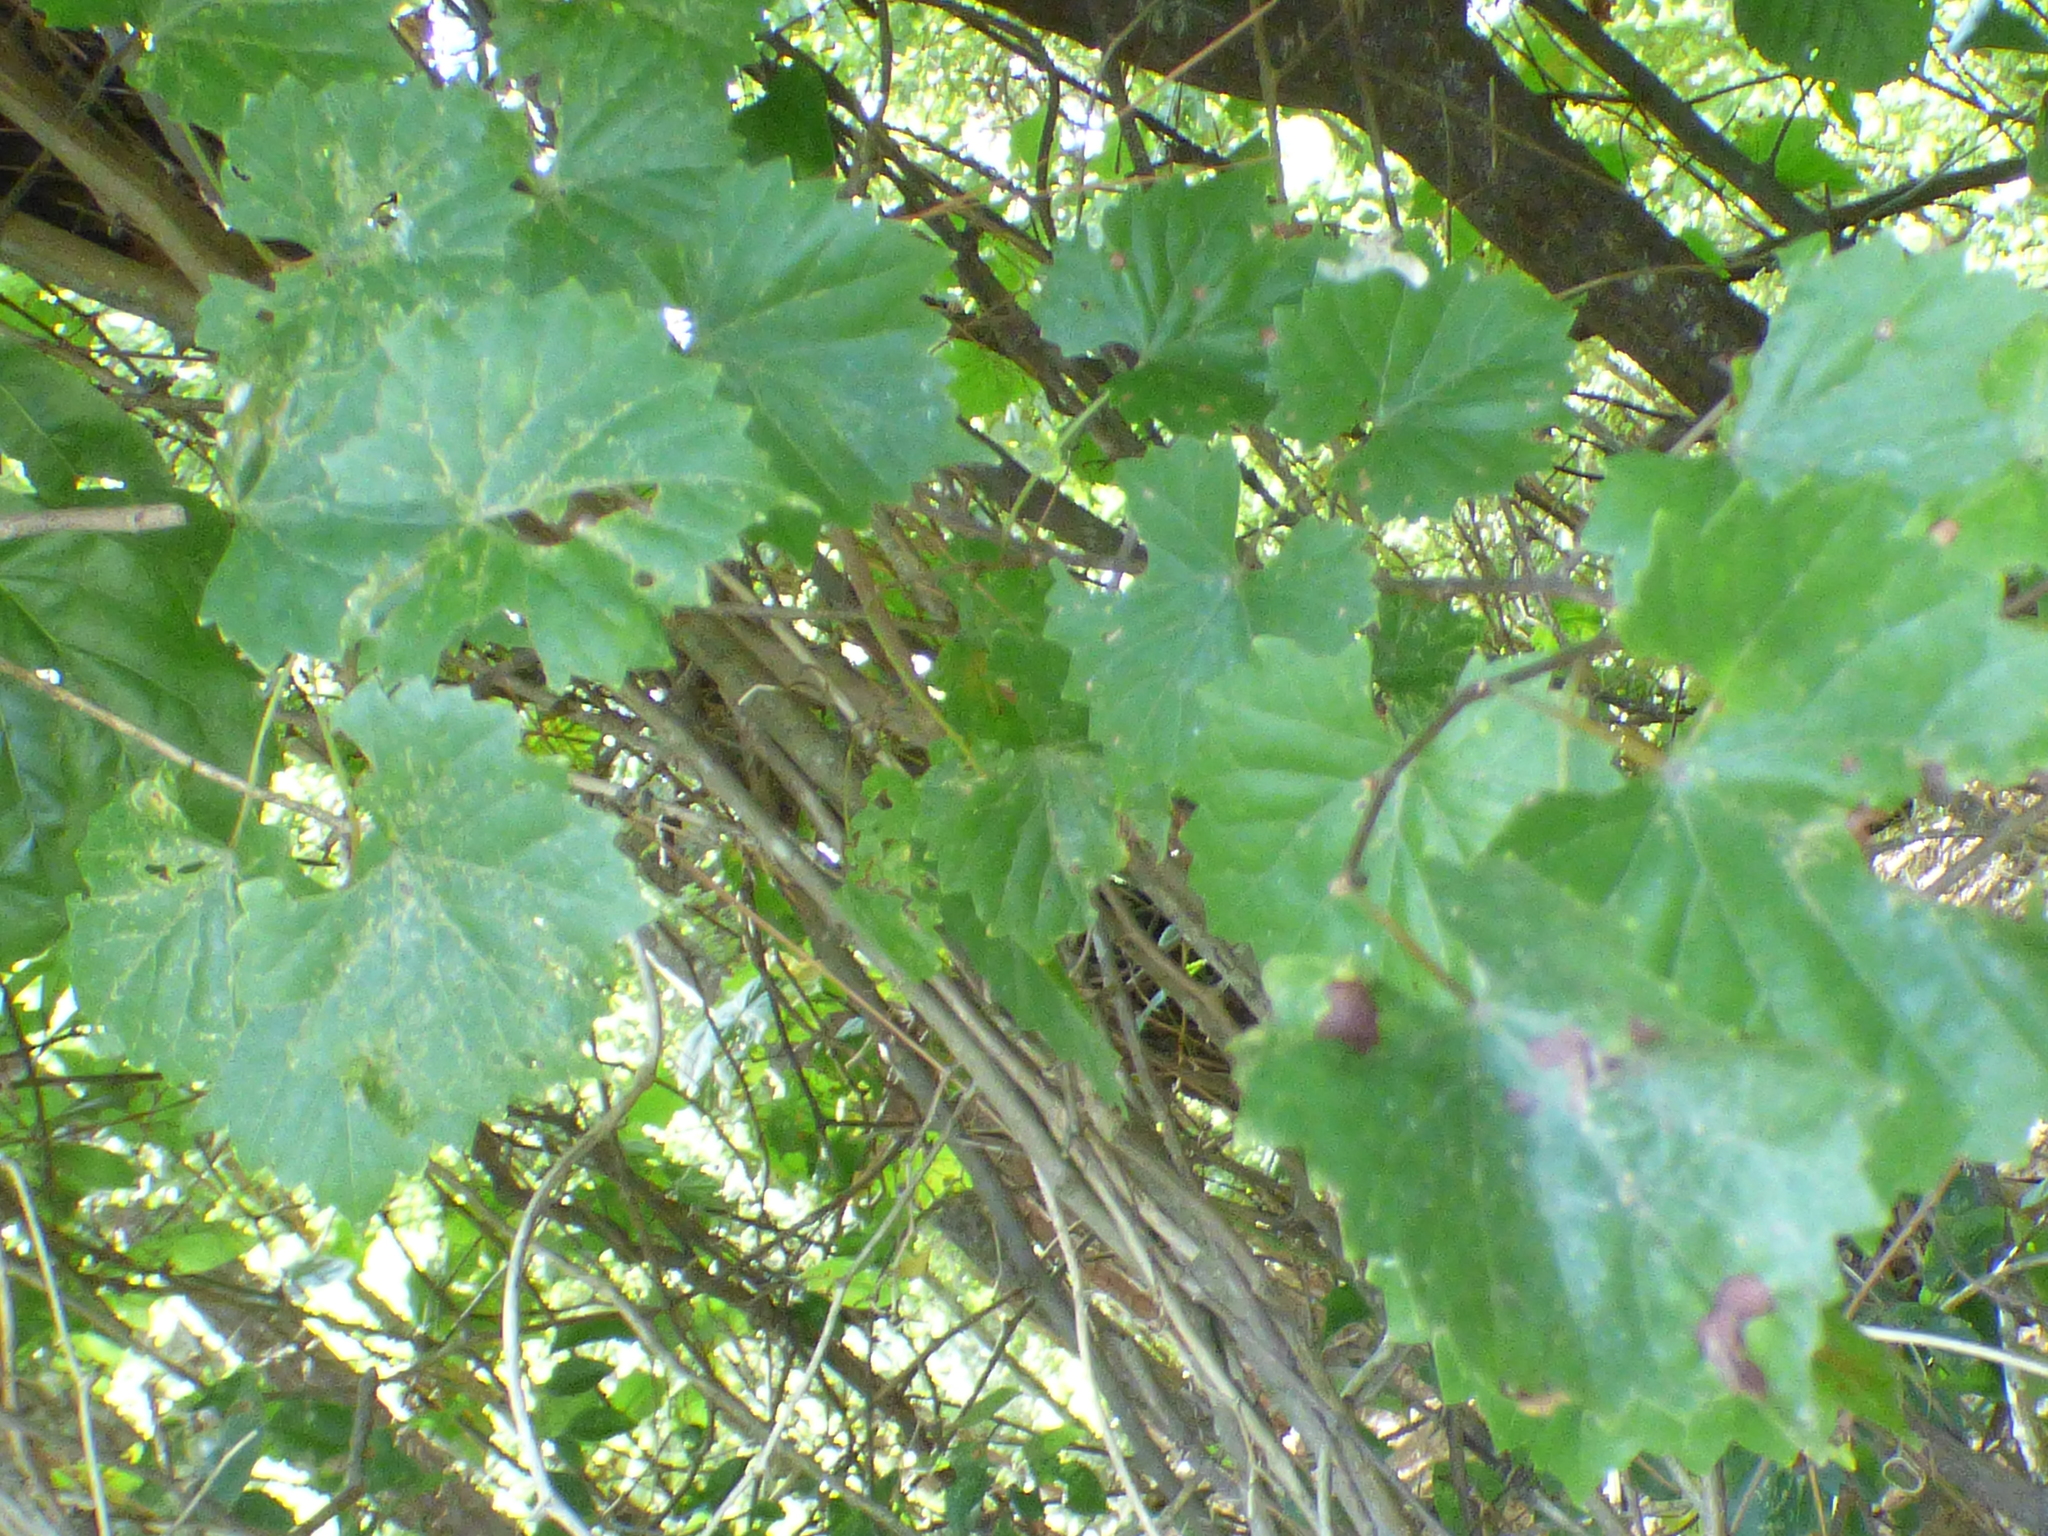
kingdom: Plantae
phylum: Tracheophyta
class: Magnoliopsida
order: Vitales
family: Vitaceae
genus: Vitis
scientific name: Vitis rotundifolia
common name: Muscadine grape
